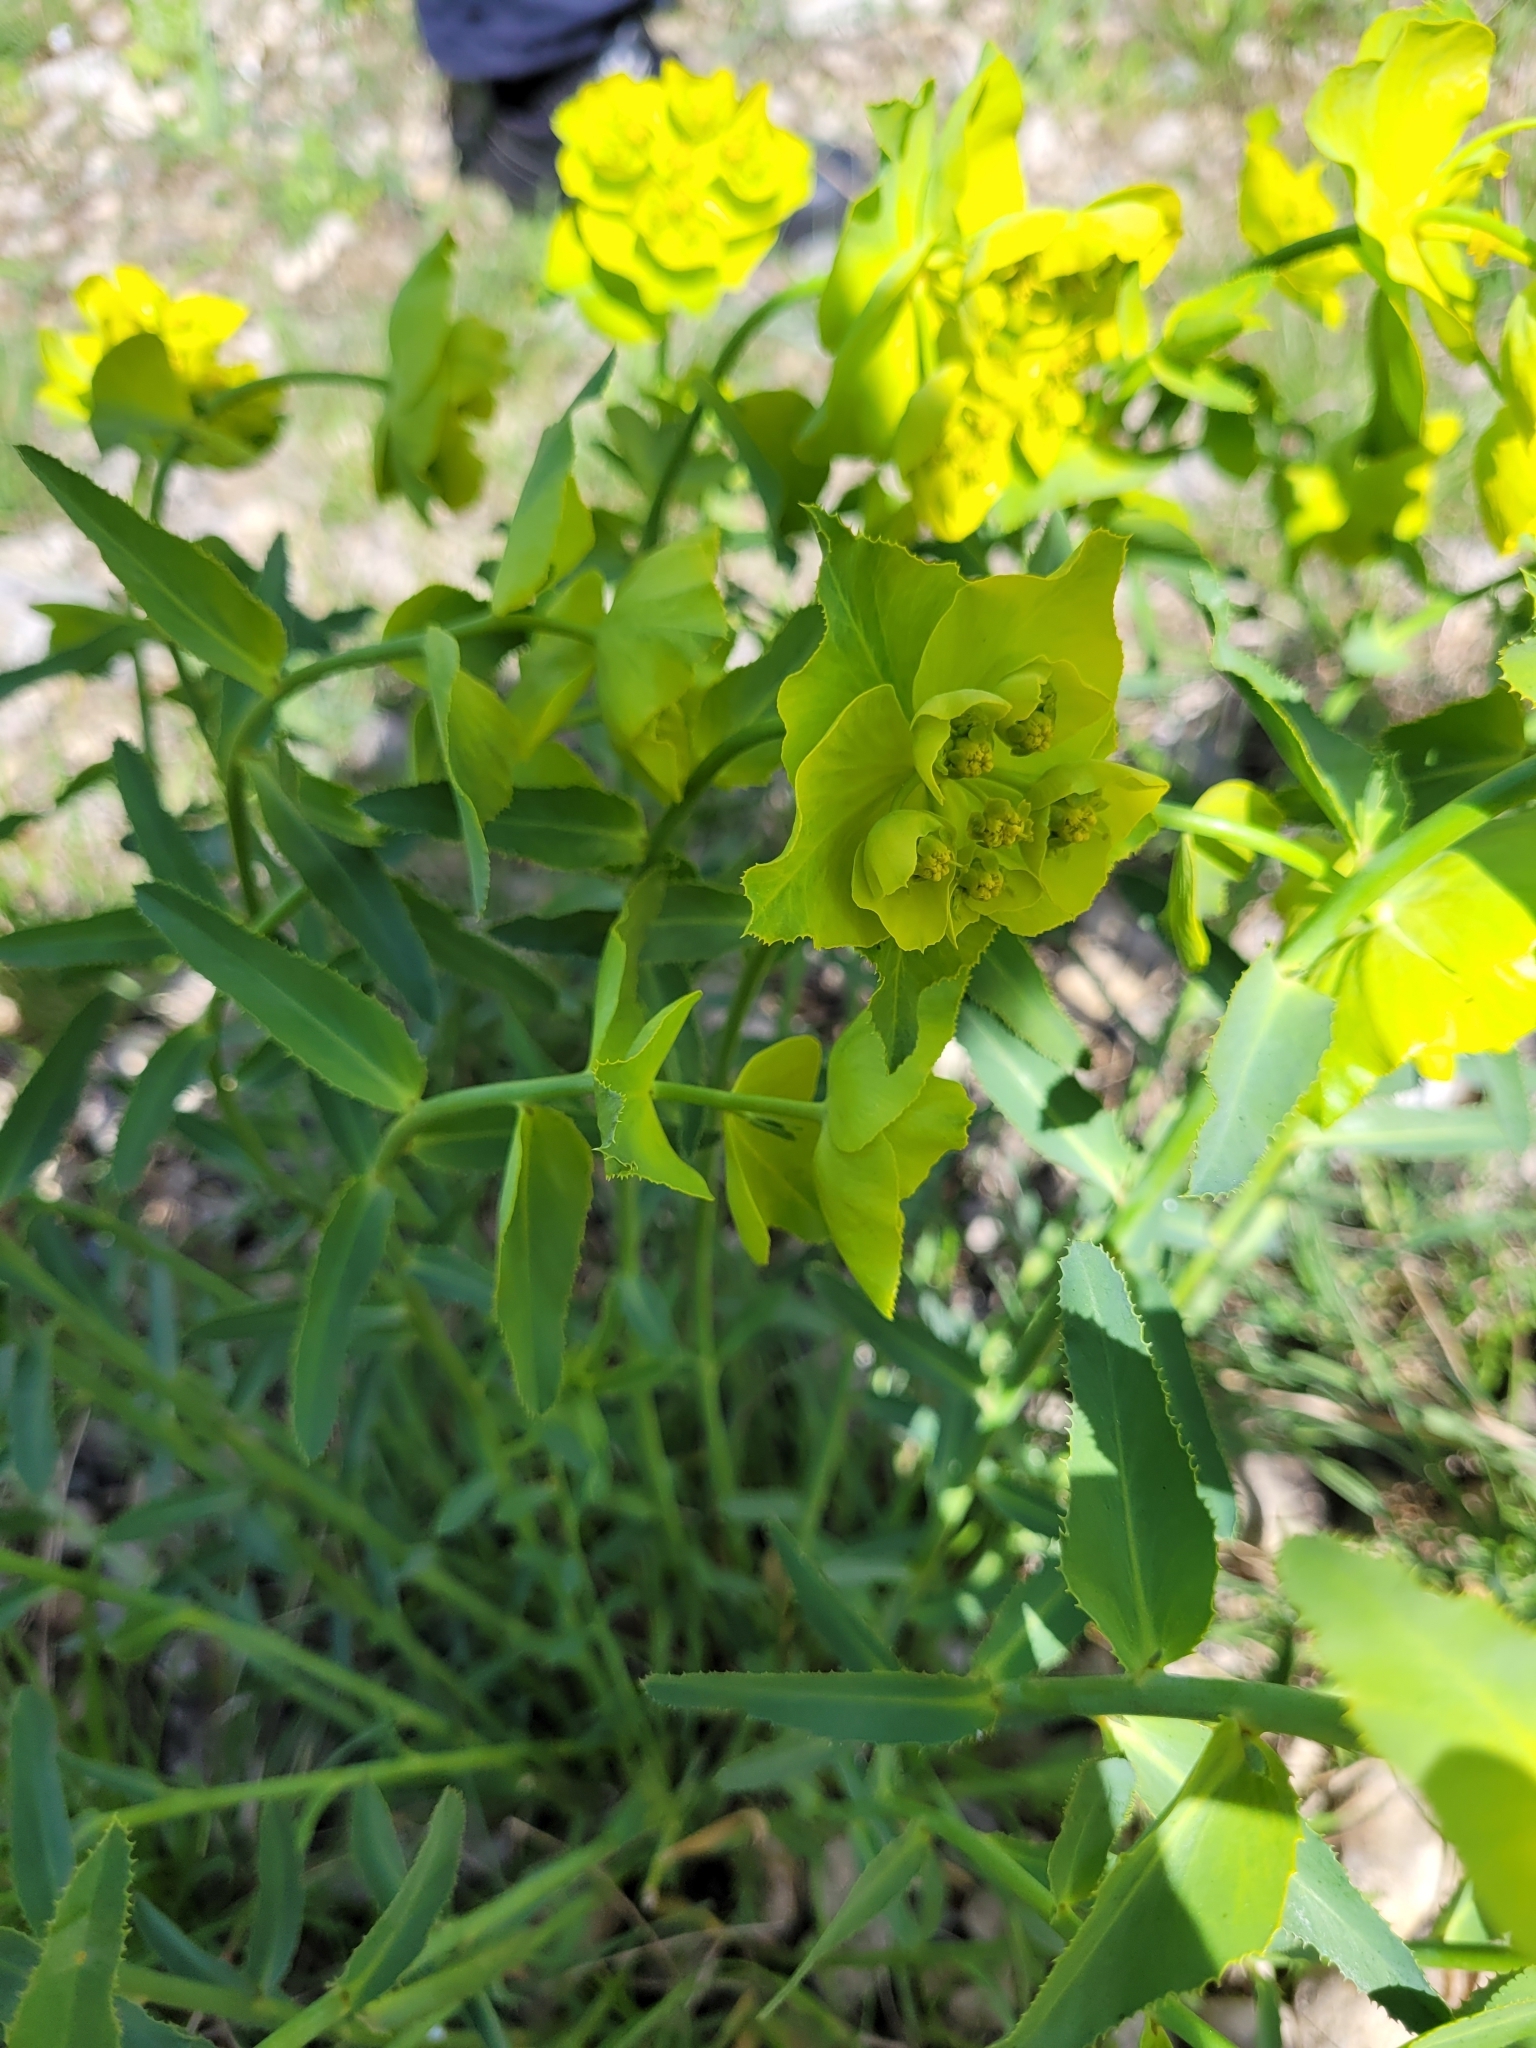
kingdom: Plantae
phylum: Tracheophyta
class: Magnoliopsida
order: Malpighiales
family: Euphorbiaceae
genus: Euphorbia
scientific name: Euphorbia serrata
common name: Serrate spurge
